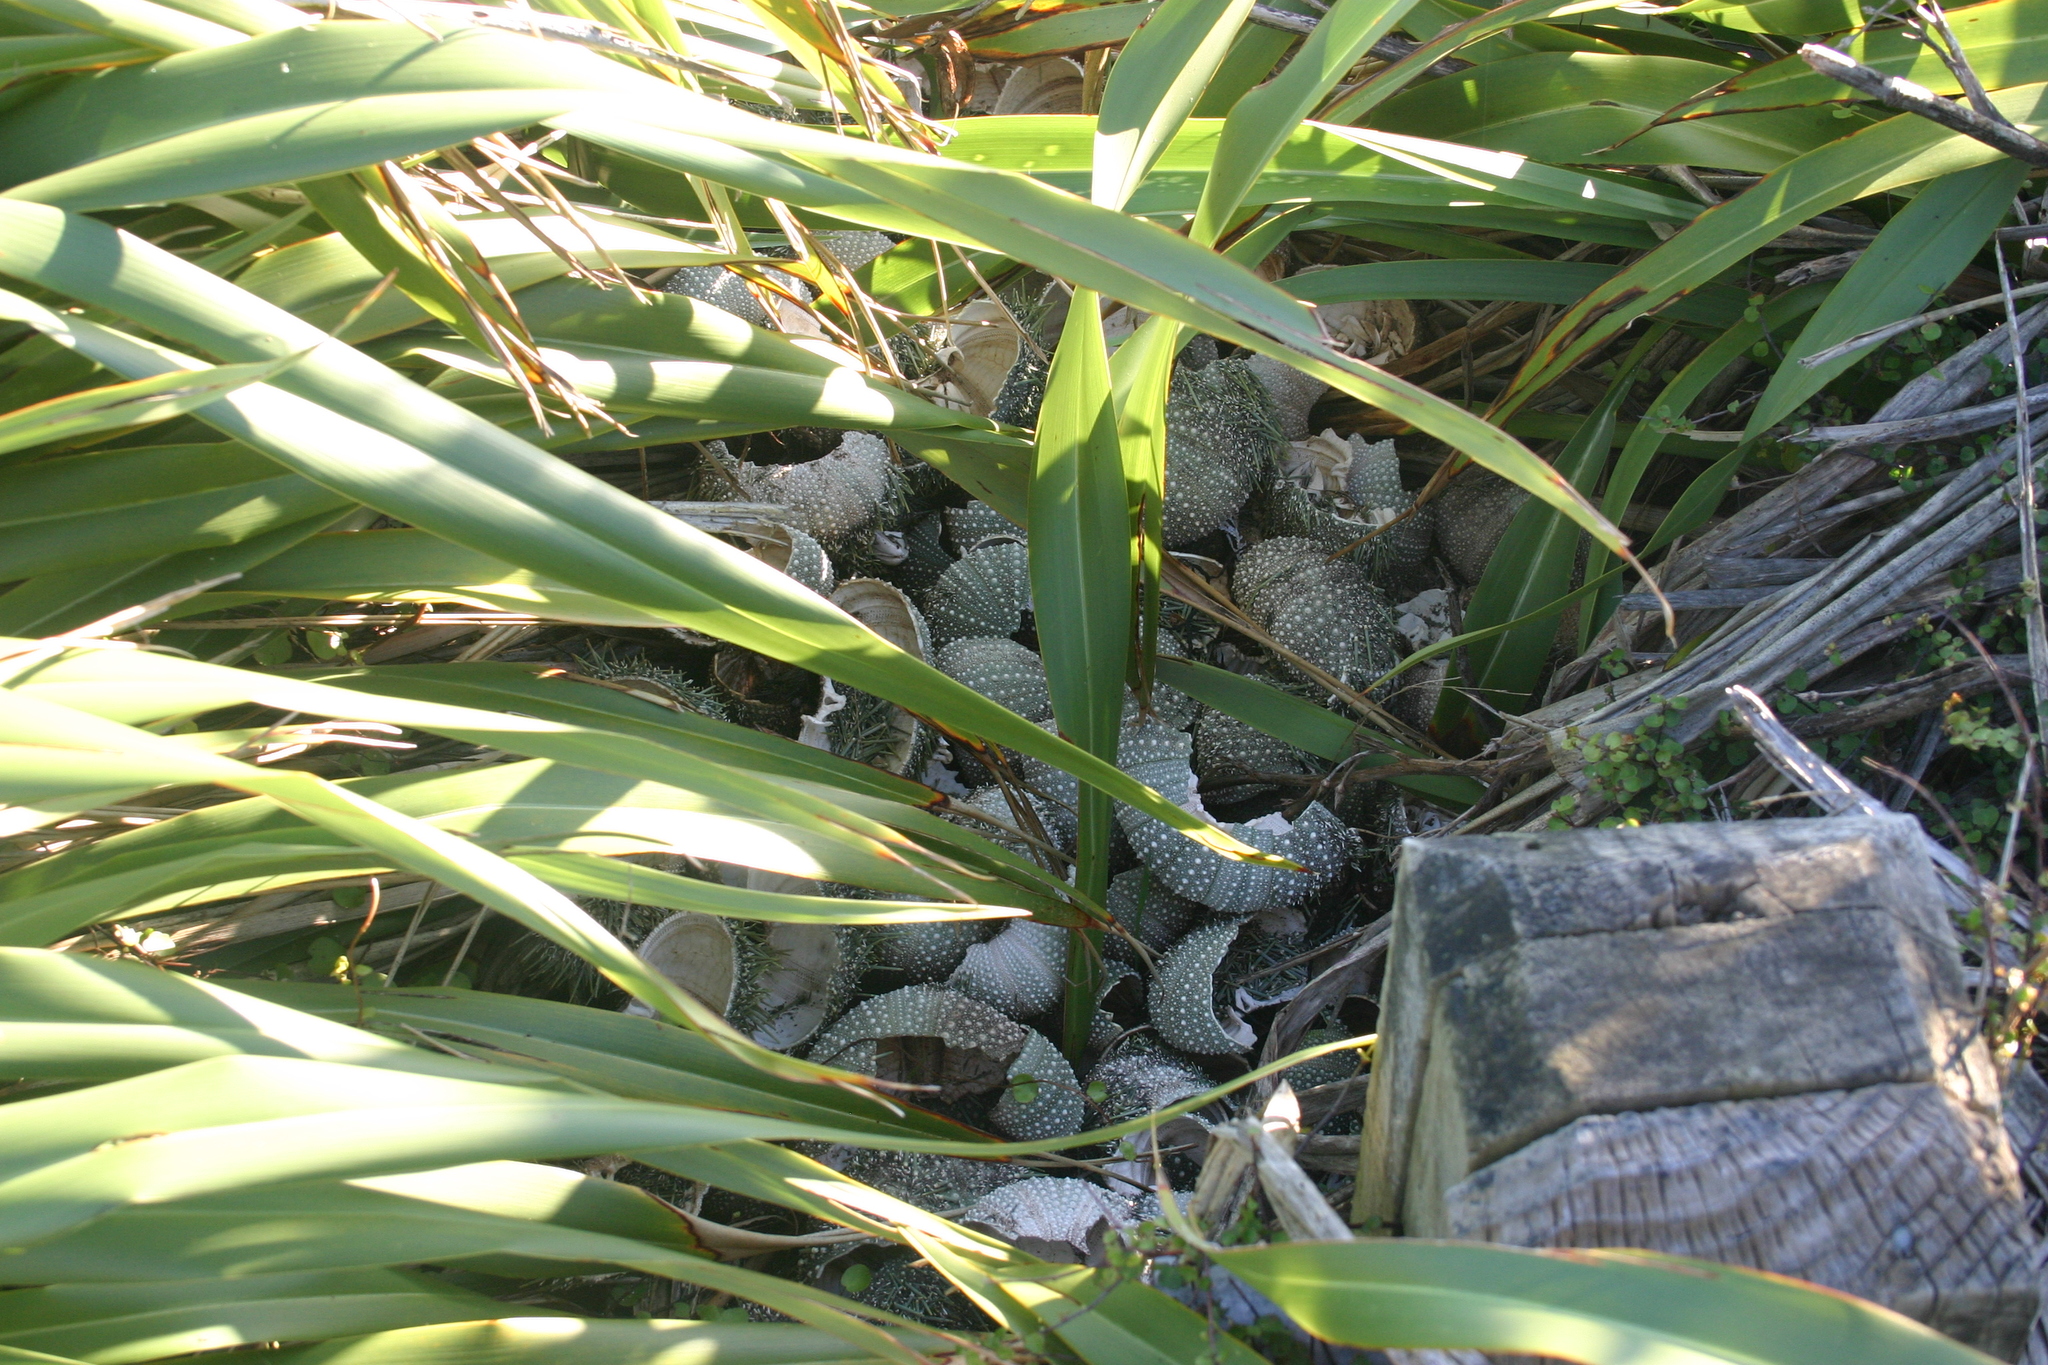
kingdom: Animalia
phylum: Echinodermata
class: Echinoidea
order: Camarodonta
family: Echinometridae
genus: Evechinus
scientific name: Evechinus chloroticus
